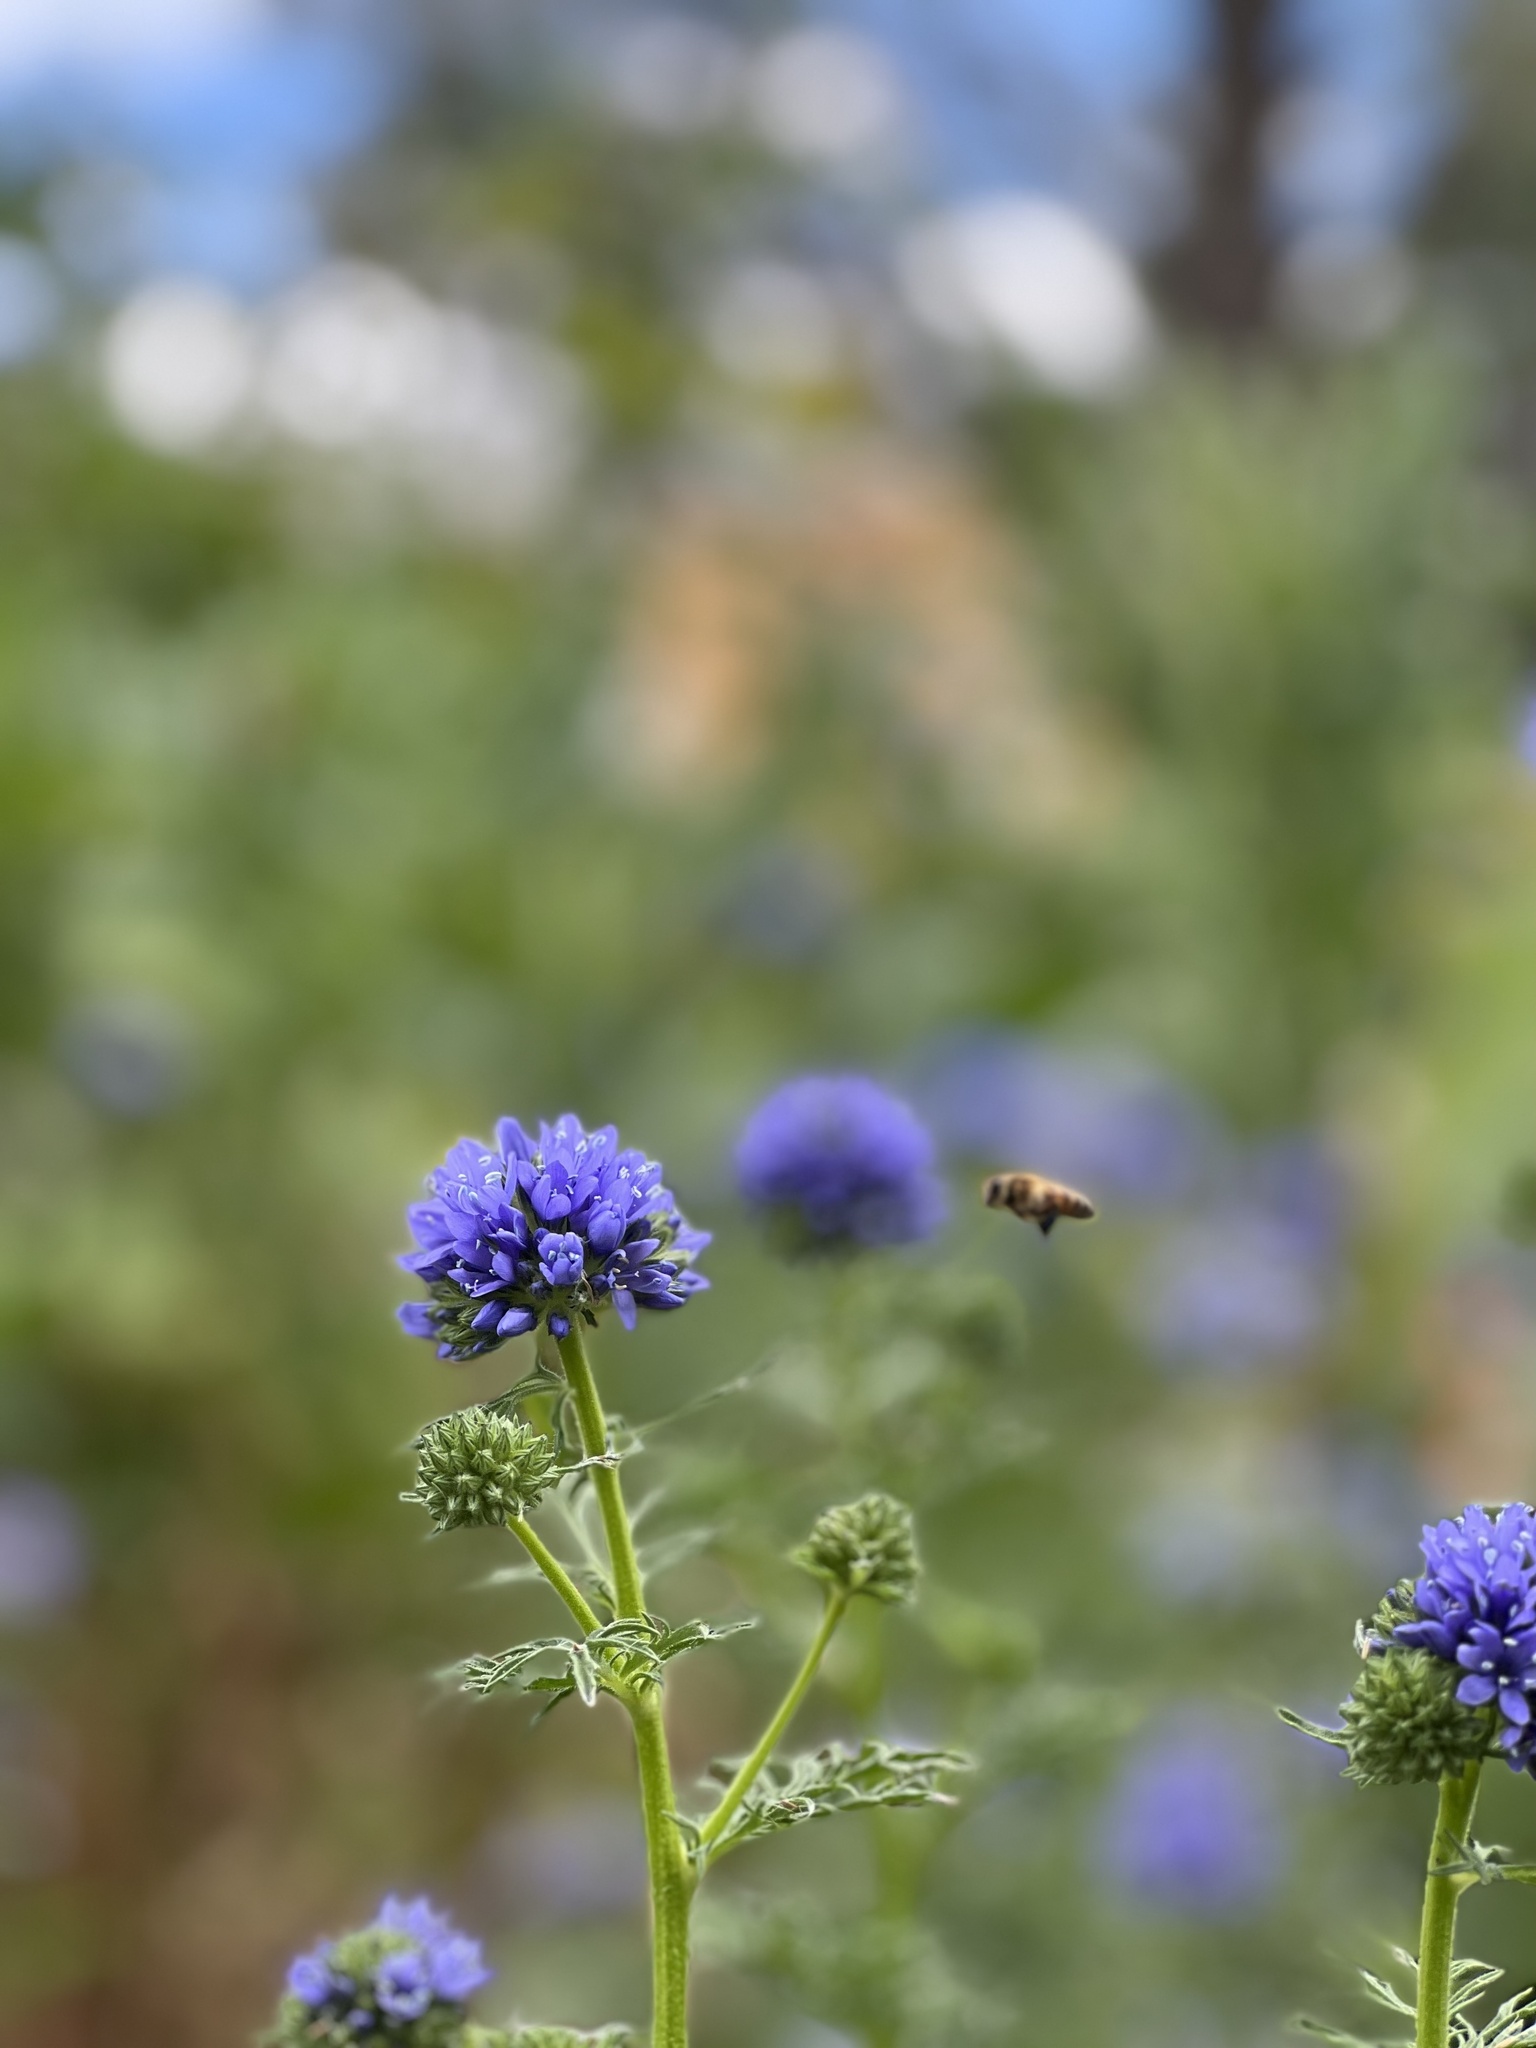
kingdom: Plantae
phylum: Tracheophyta
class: Magnoliopsida
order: Ericales
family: Polemoniaceae
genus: Gilia
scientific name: Gilia capitata
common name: Bluehead gilia
